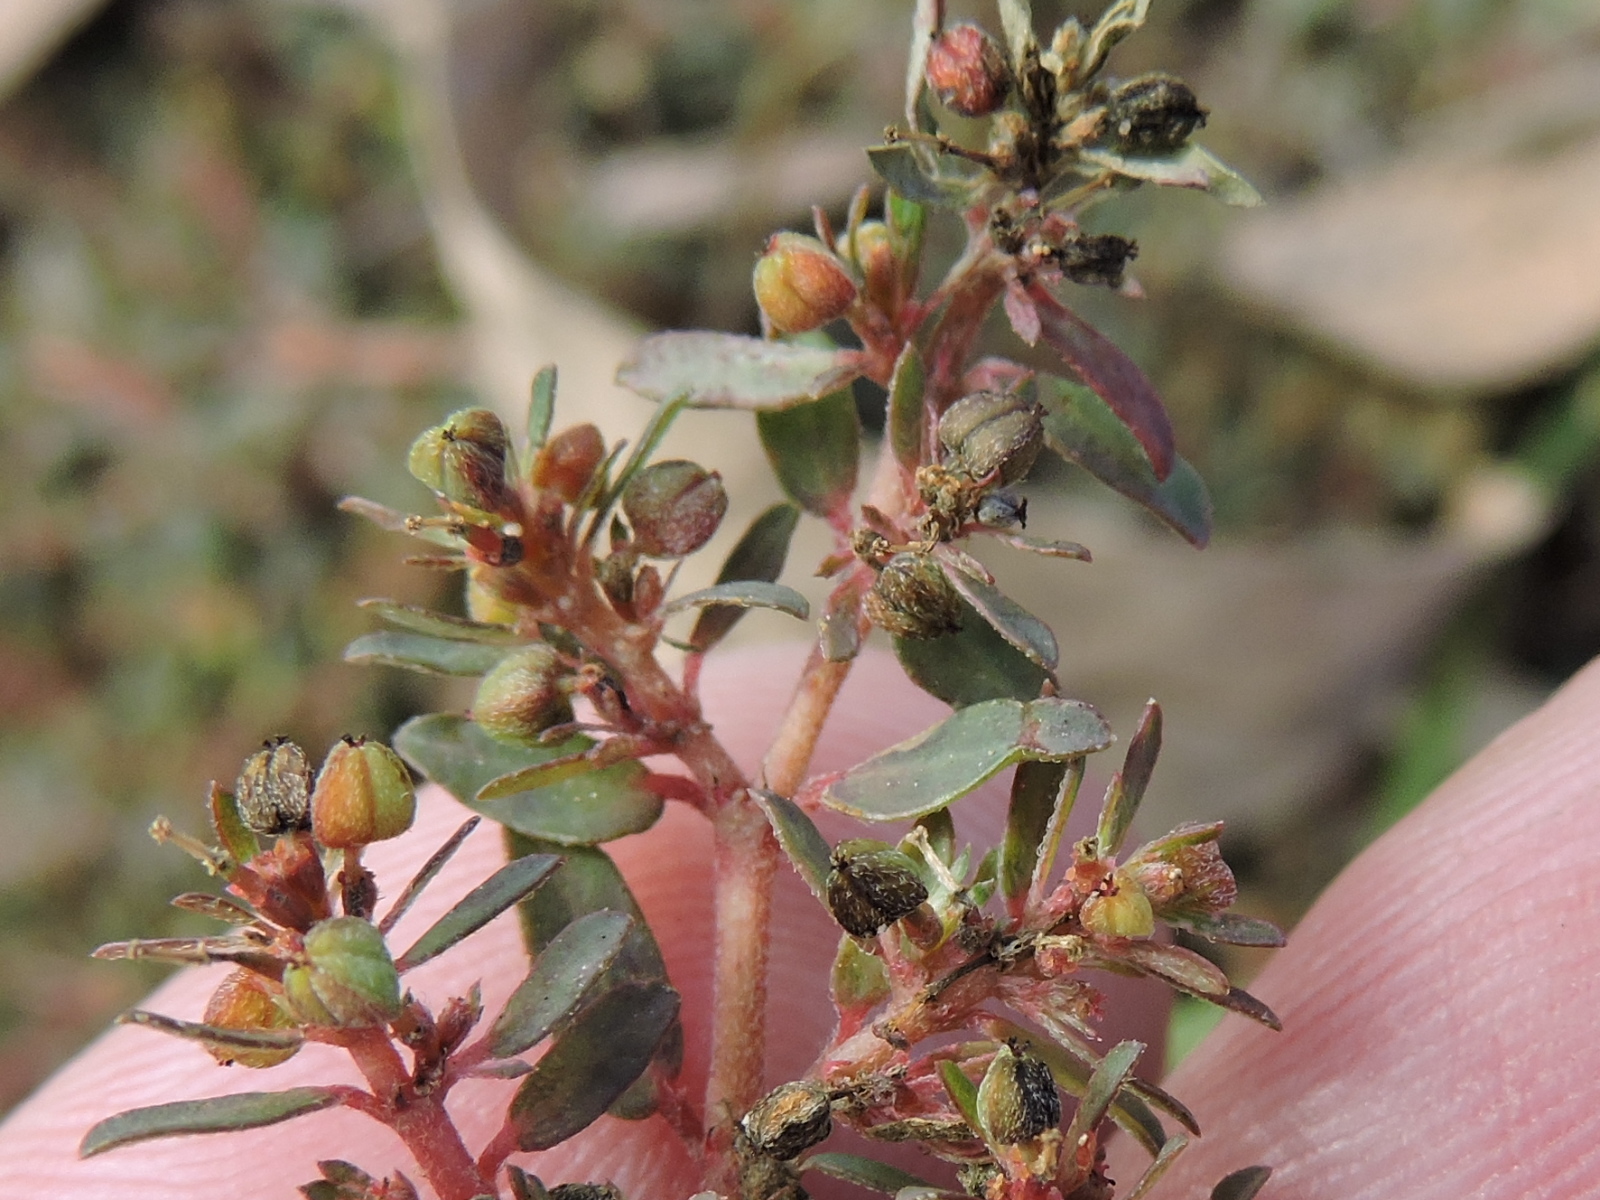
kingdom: Plantae
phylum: Tracheophyta
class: Magnoliopsida
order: Malpighiales
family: Euphorbiaceae
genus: Euphorbia
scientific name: Euphorbia maculata
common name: Spotted spurge
